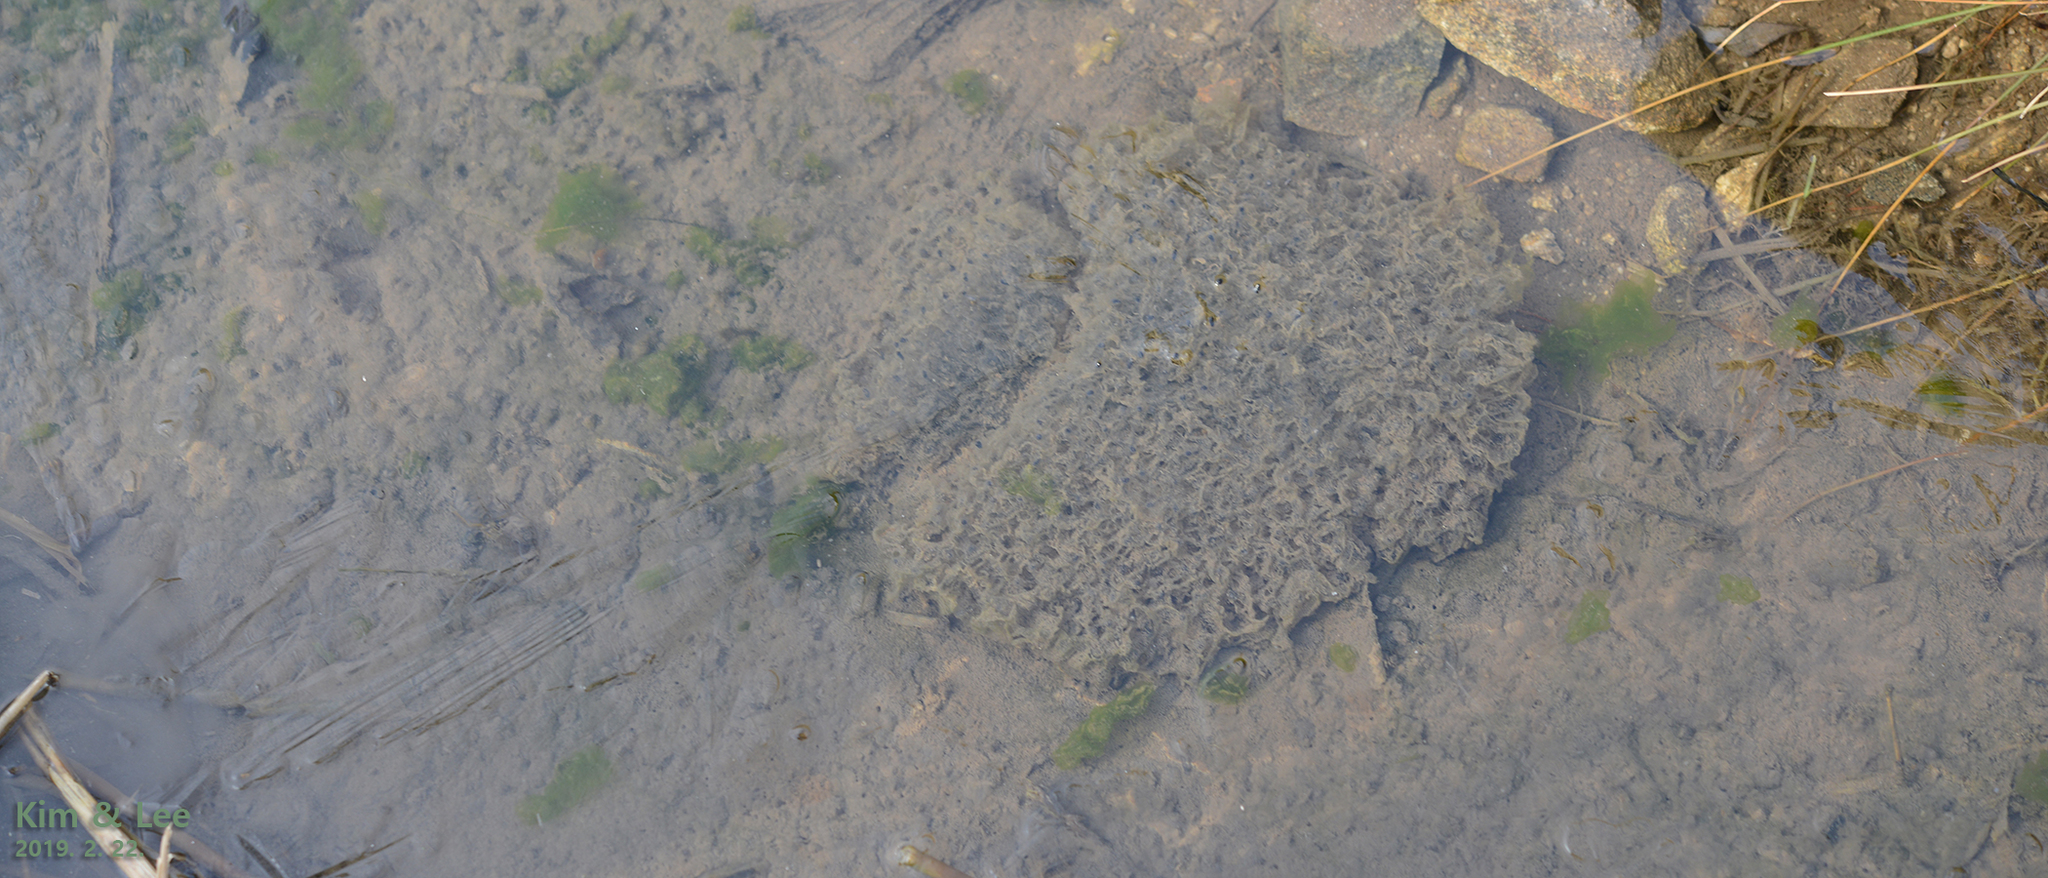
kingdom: Animalia
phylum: Chordata
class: Amphibia
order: Anura
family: Ranidae
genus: Rana
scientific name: Rana uenoi
